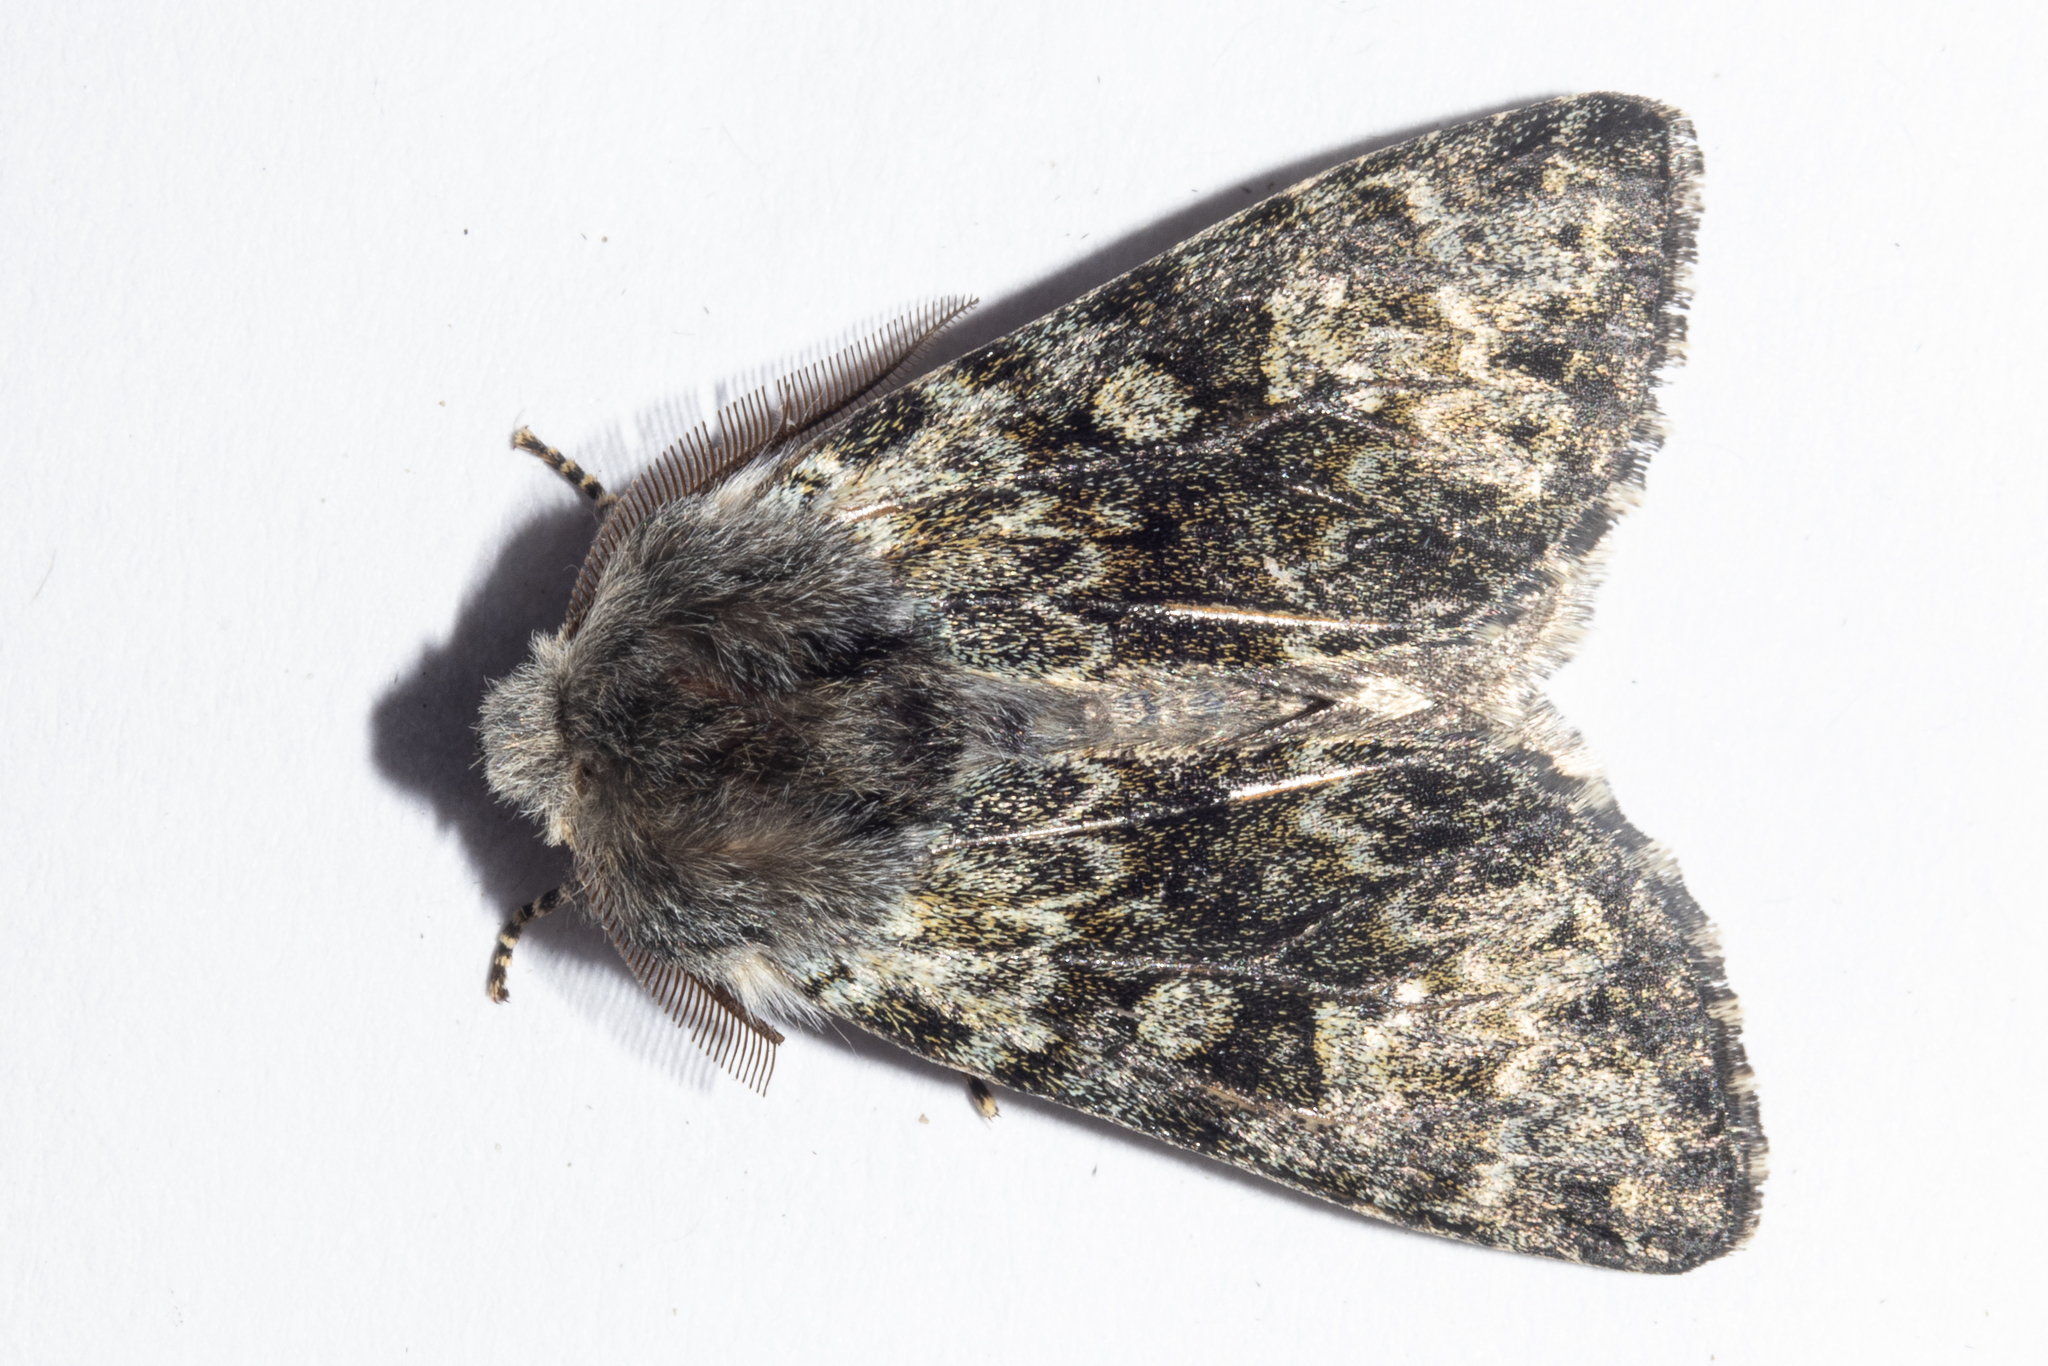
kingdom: Animalia
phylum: Arthropoda
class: Insecta
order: Lepidoptera
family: Noctuidae
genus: Ichneutica
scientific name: Ichneutica cana
